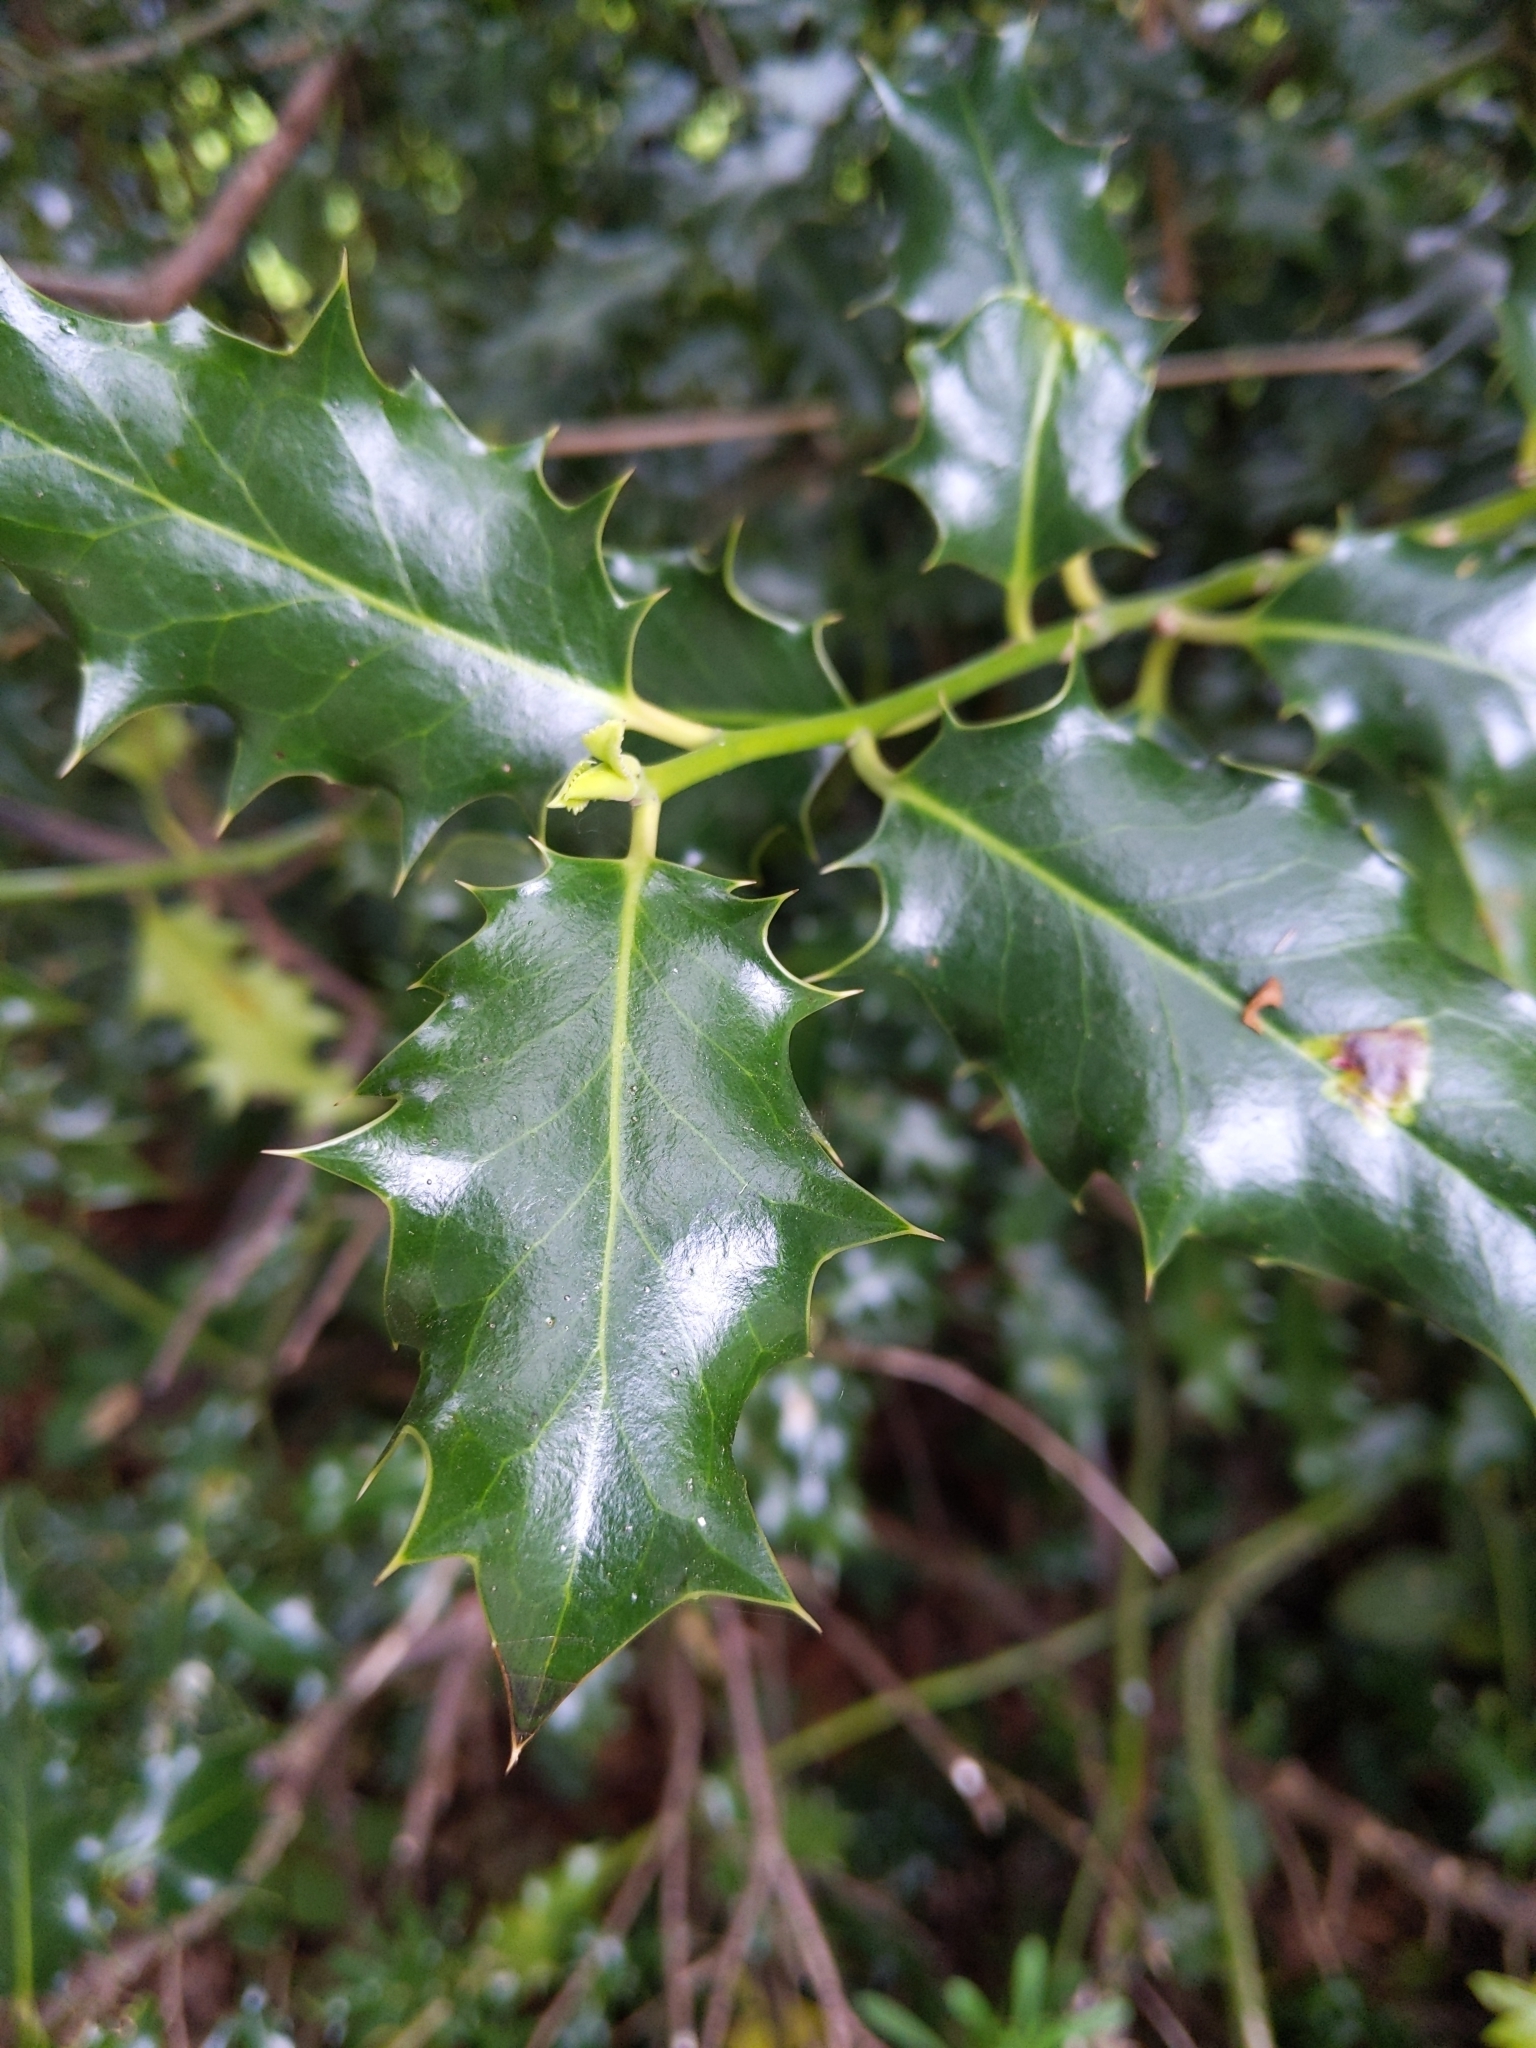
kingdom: Plantae
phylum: Tracheophyta
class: Magnoliopsida
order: Aquifoliales
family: Aquifoliaceae
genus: Ilex
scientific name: Ilex aquifolium
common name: English holly
